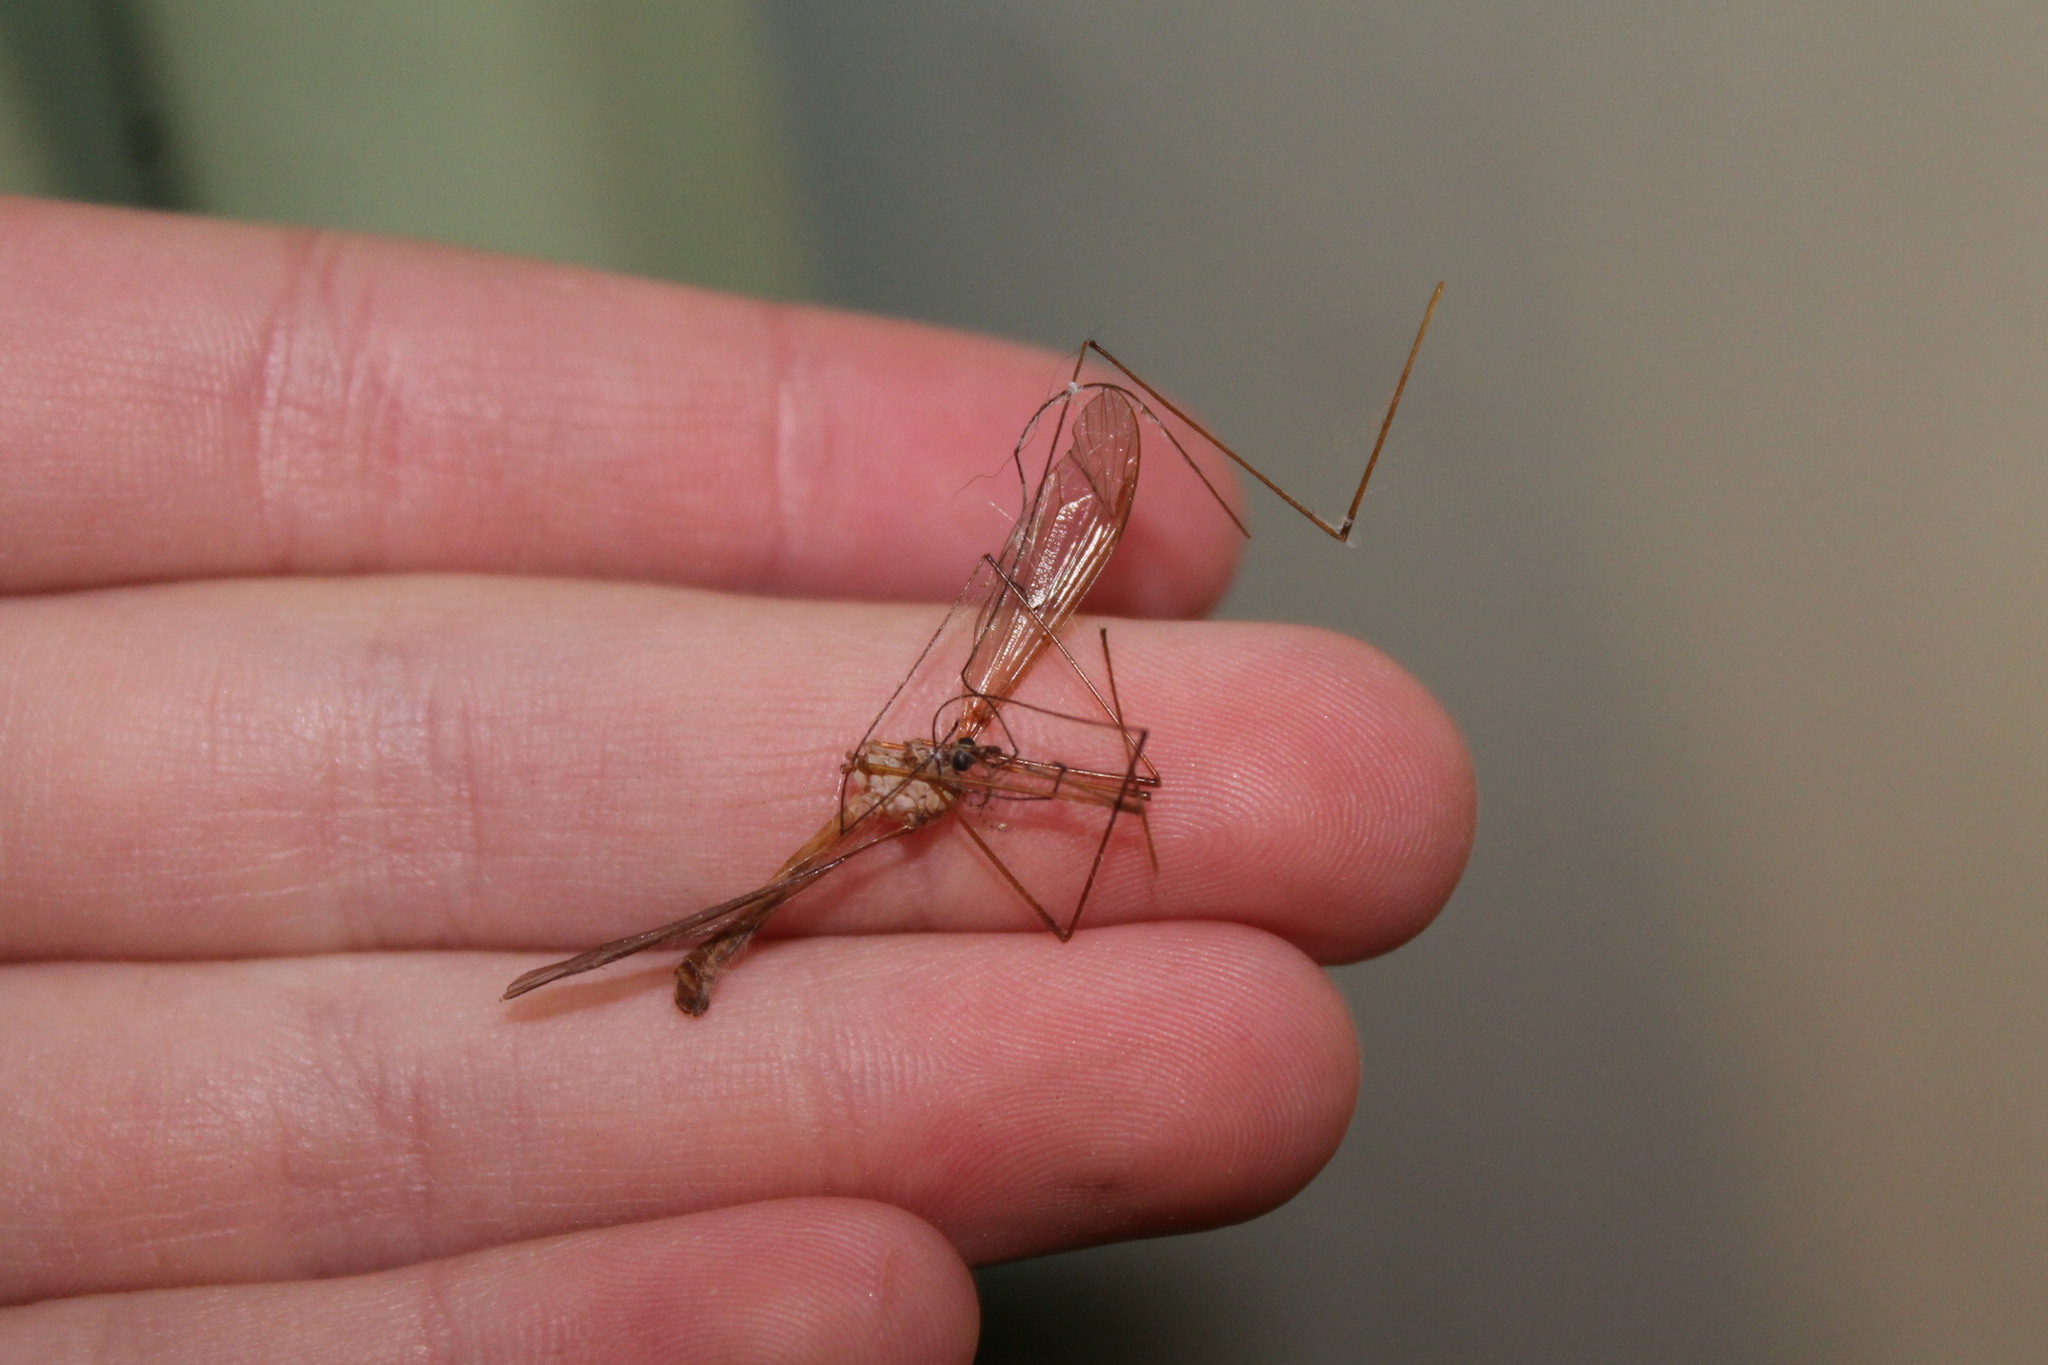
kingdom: Animalia
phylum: Arthropoda
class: Insecta
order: Diptera
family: Tipulidae
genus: Nephrotoma
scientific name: Nephrotoma ferruginea
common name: Ferruginous tiger crane fly
